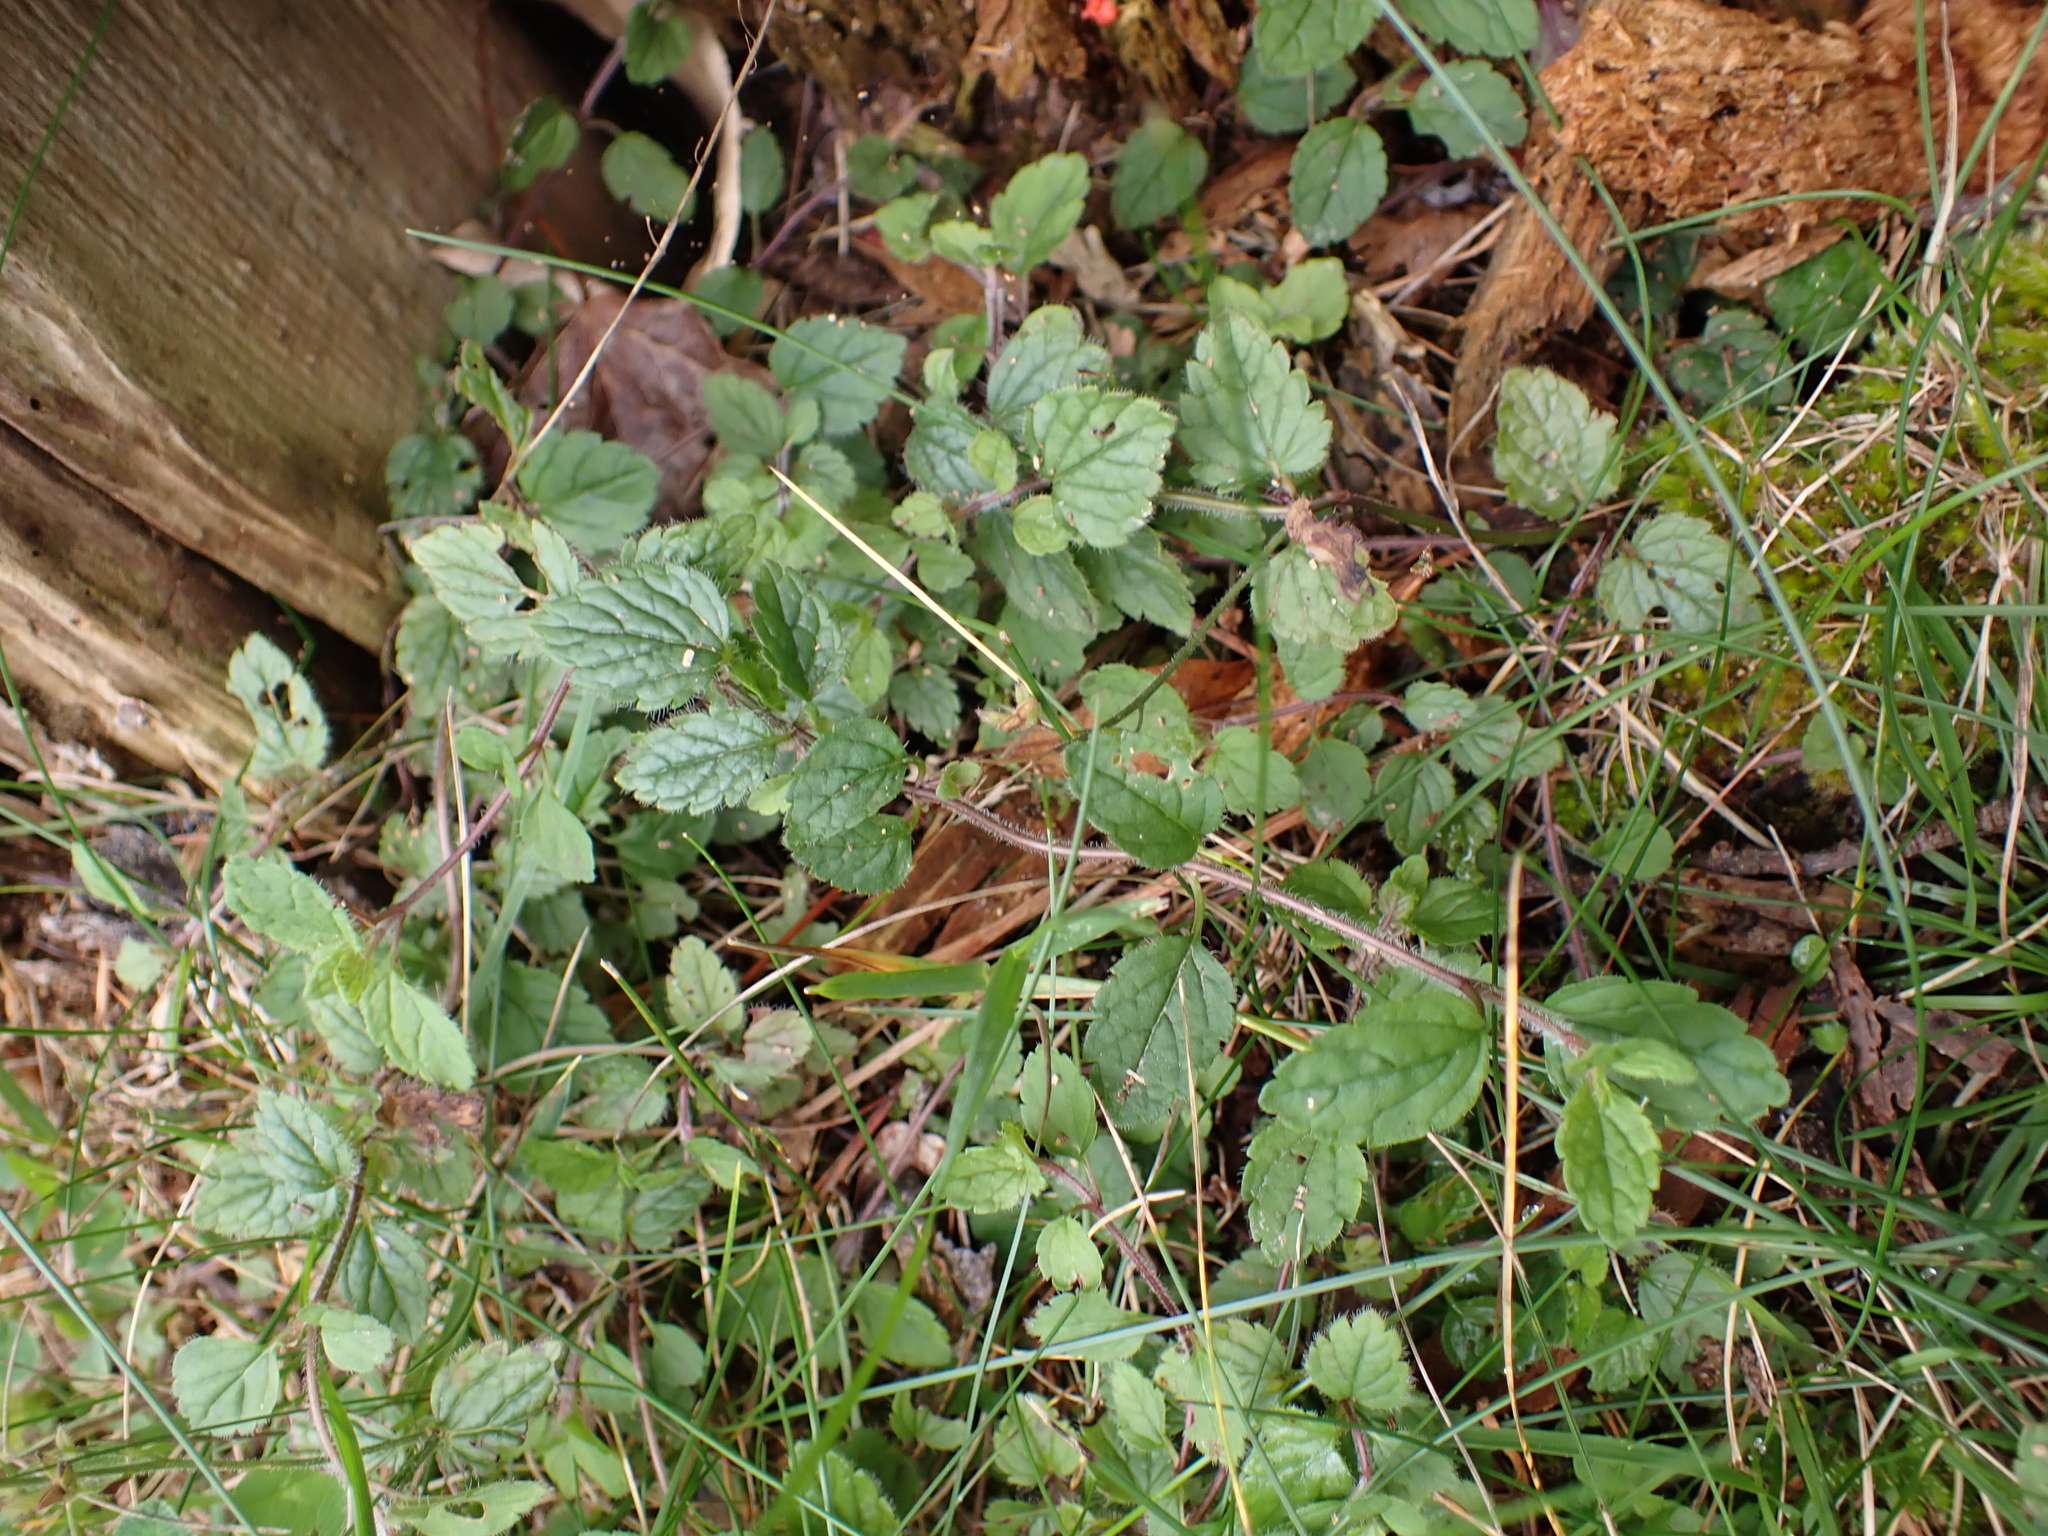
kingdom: Plantae
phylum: Tracheophyta
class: Magnoliopsida
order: Lamiales
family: Lamiaceae
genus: Lamium
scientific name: Lamium galeobdolon
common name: Yellow archangel
